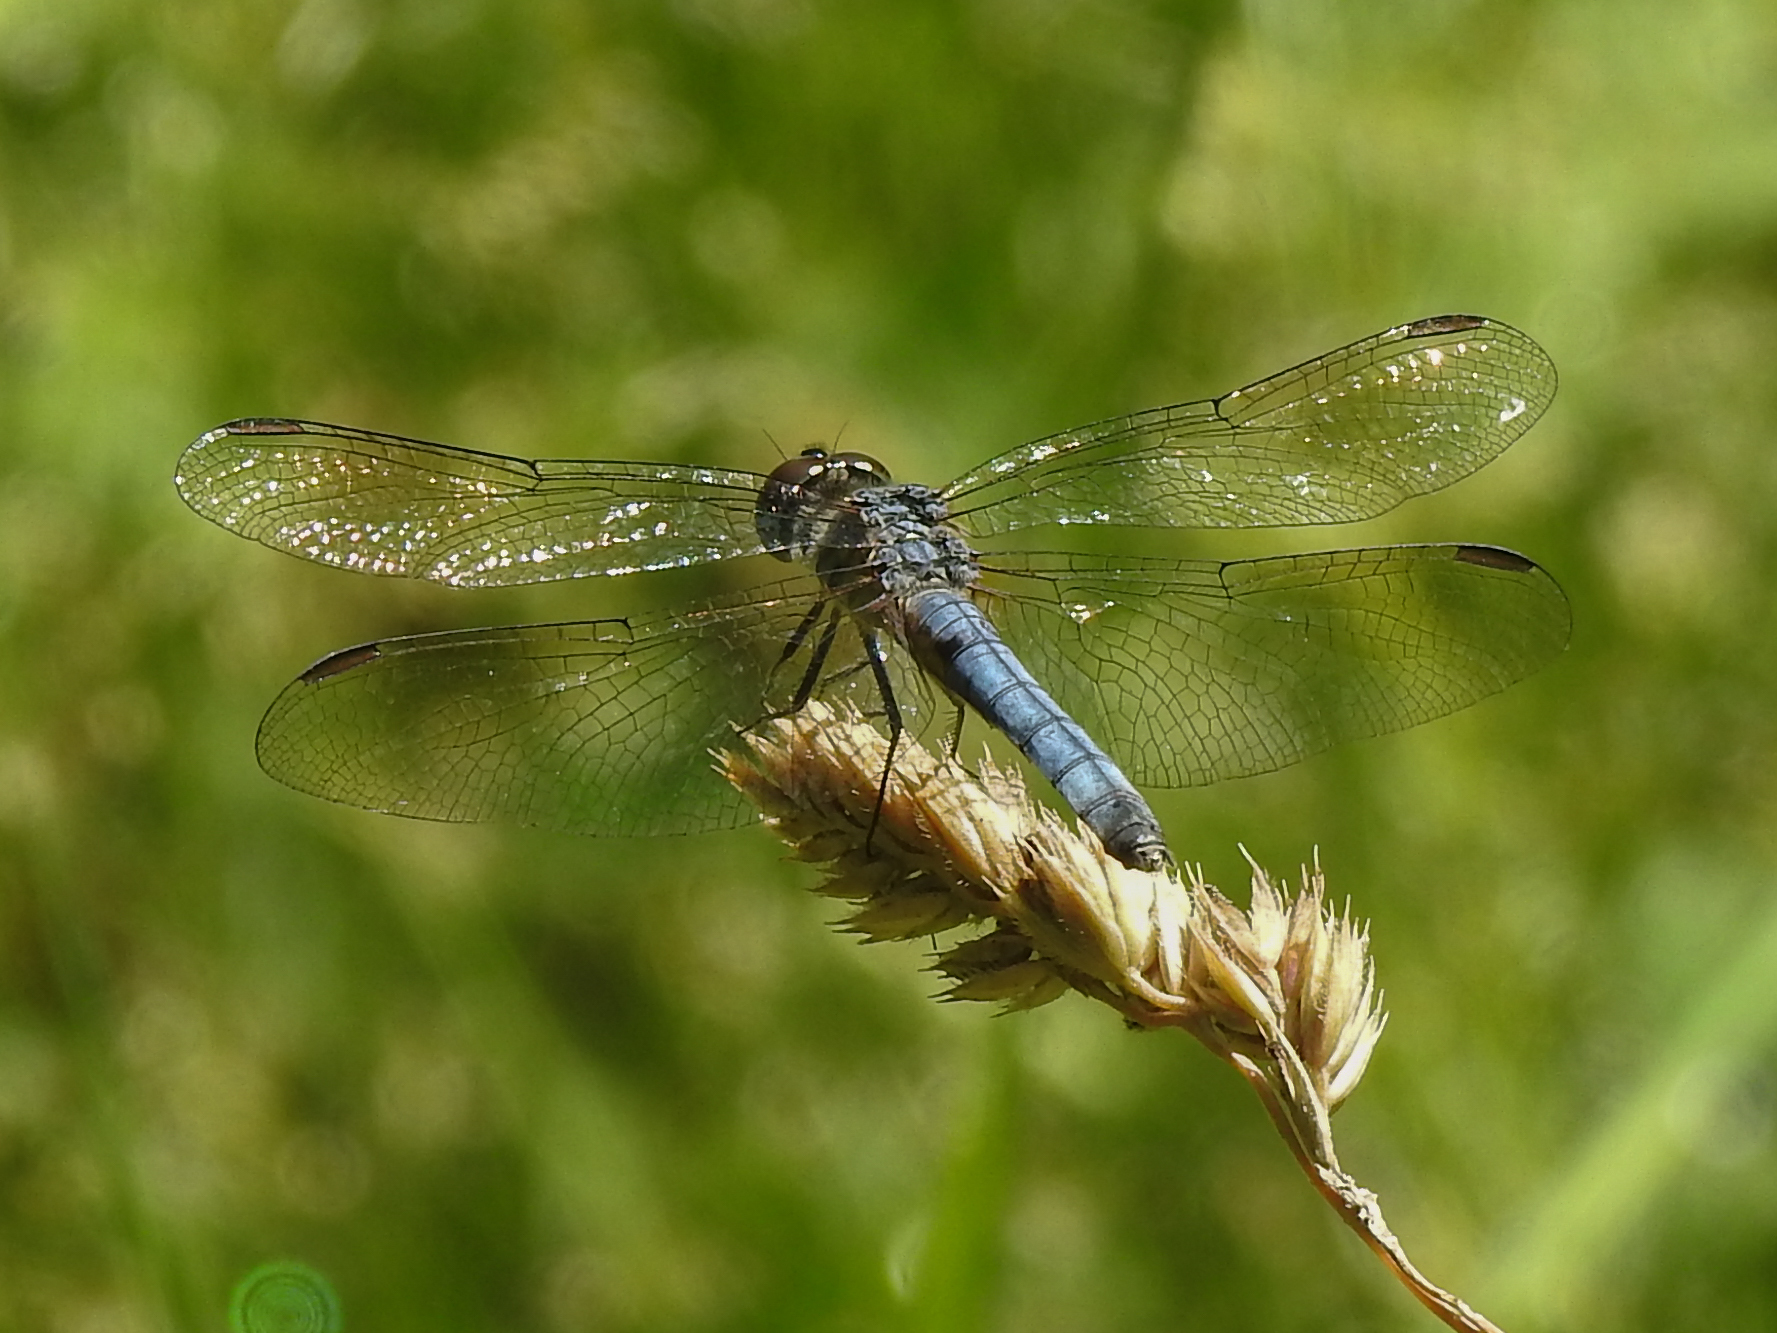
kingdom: Animalia
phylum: Arthropoda
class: Insecta
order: Odonata
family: Libellulidae
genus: Pachydiplax
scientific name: Pachydiplax longipennis
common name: Blue dasher
